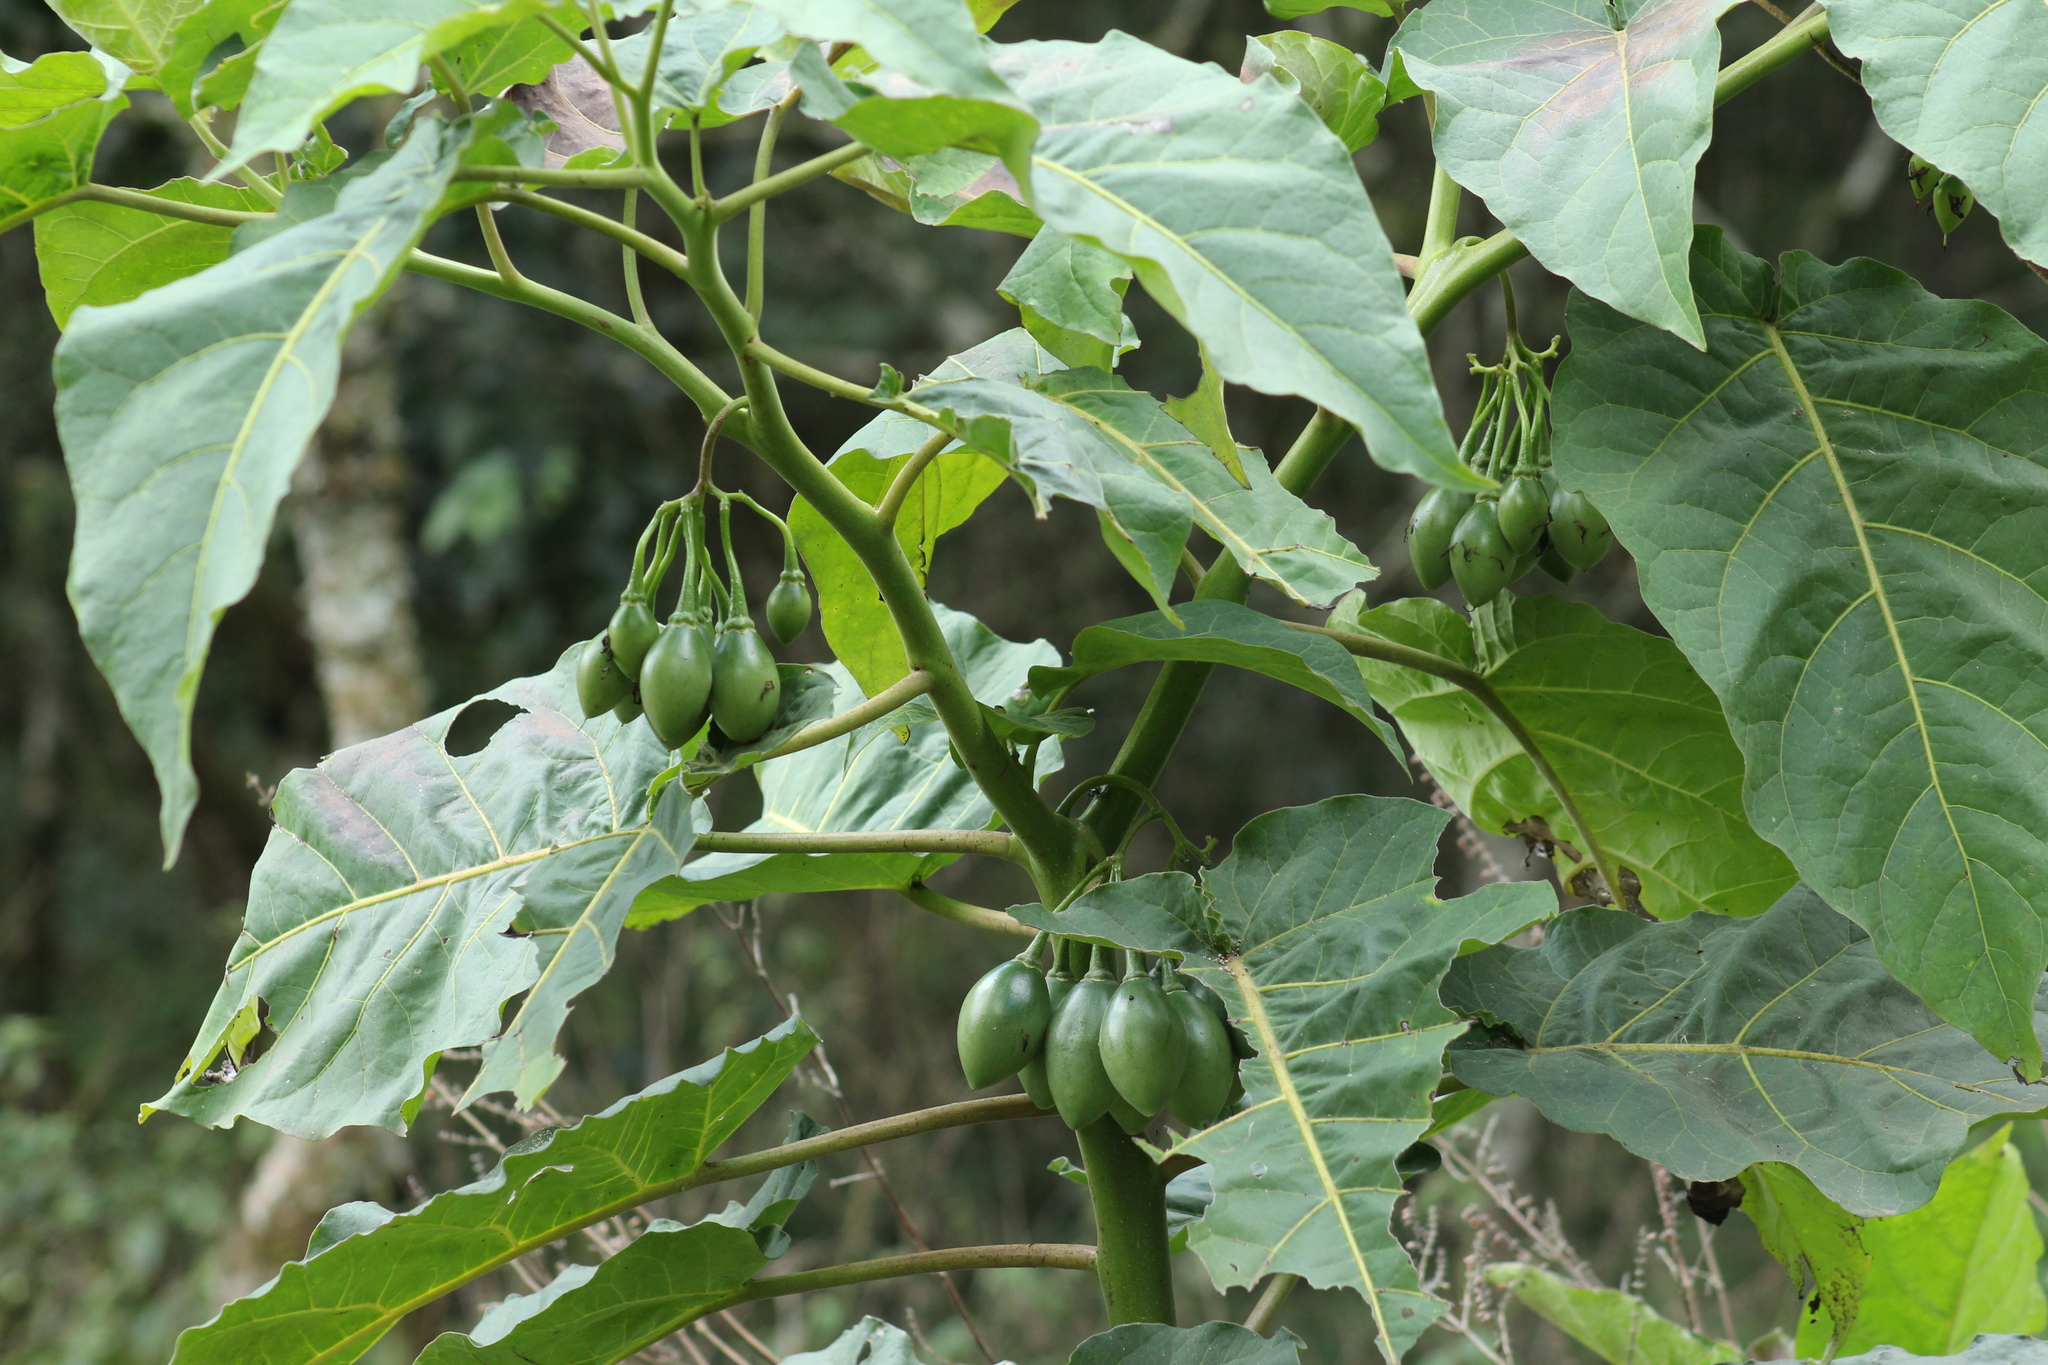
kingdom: Plantae
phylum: Tracheophyta
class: Magnoliopsida
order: Solanales
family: Solanaceae
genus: Solanum
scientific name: Solanum betaceum
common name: Tamarillo
